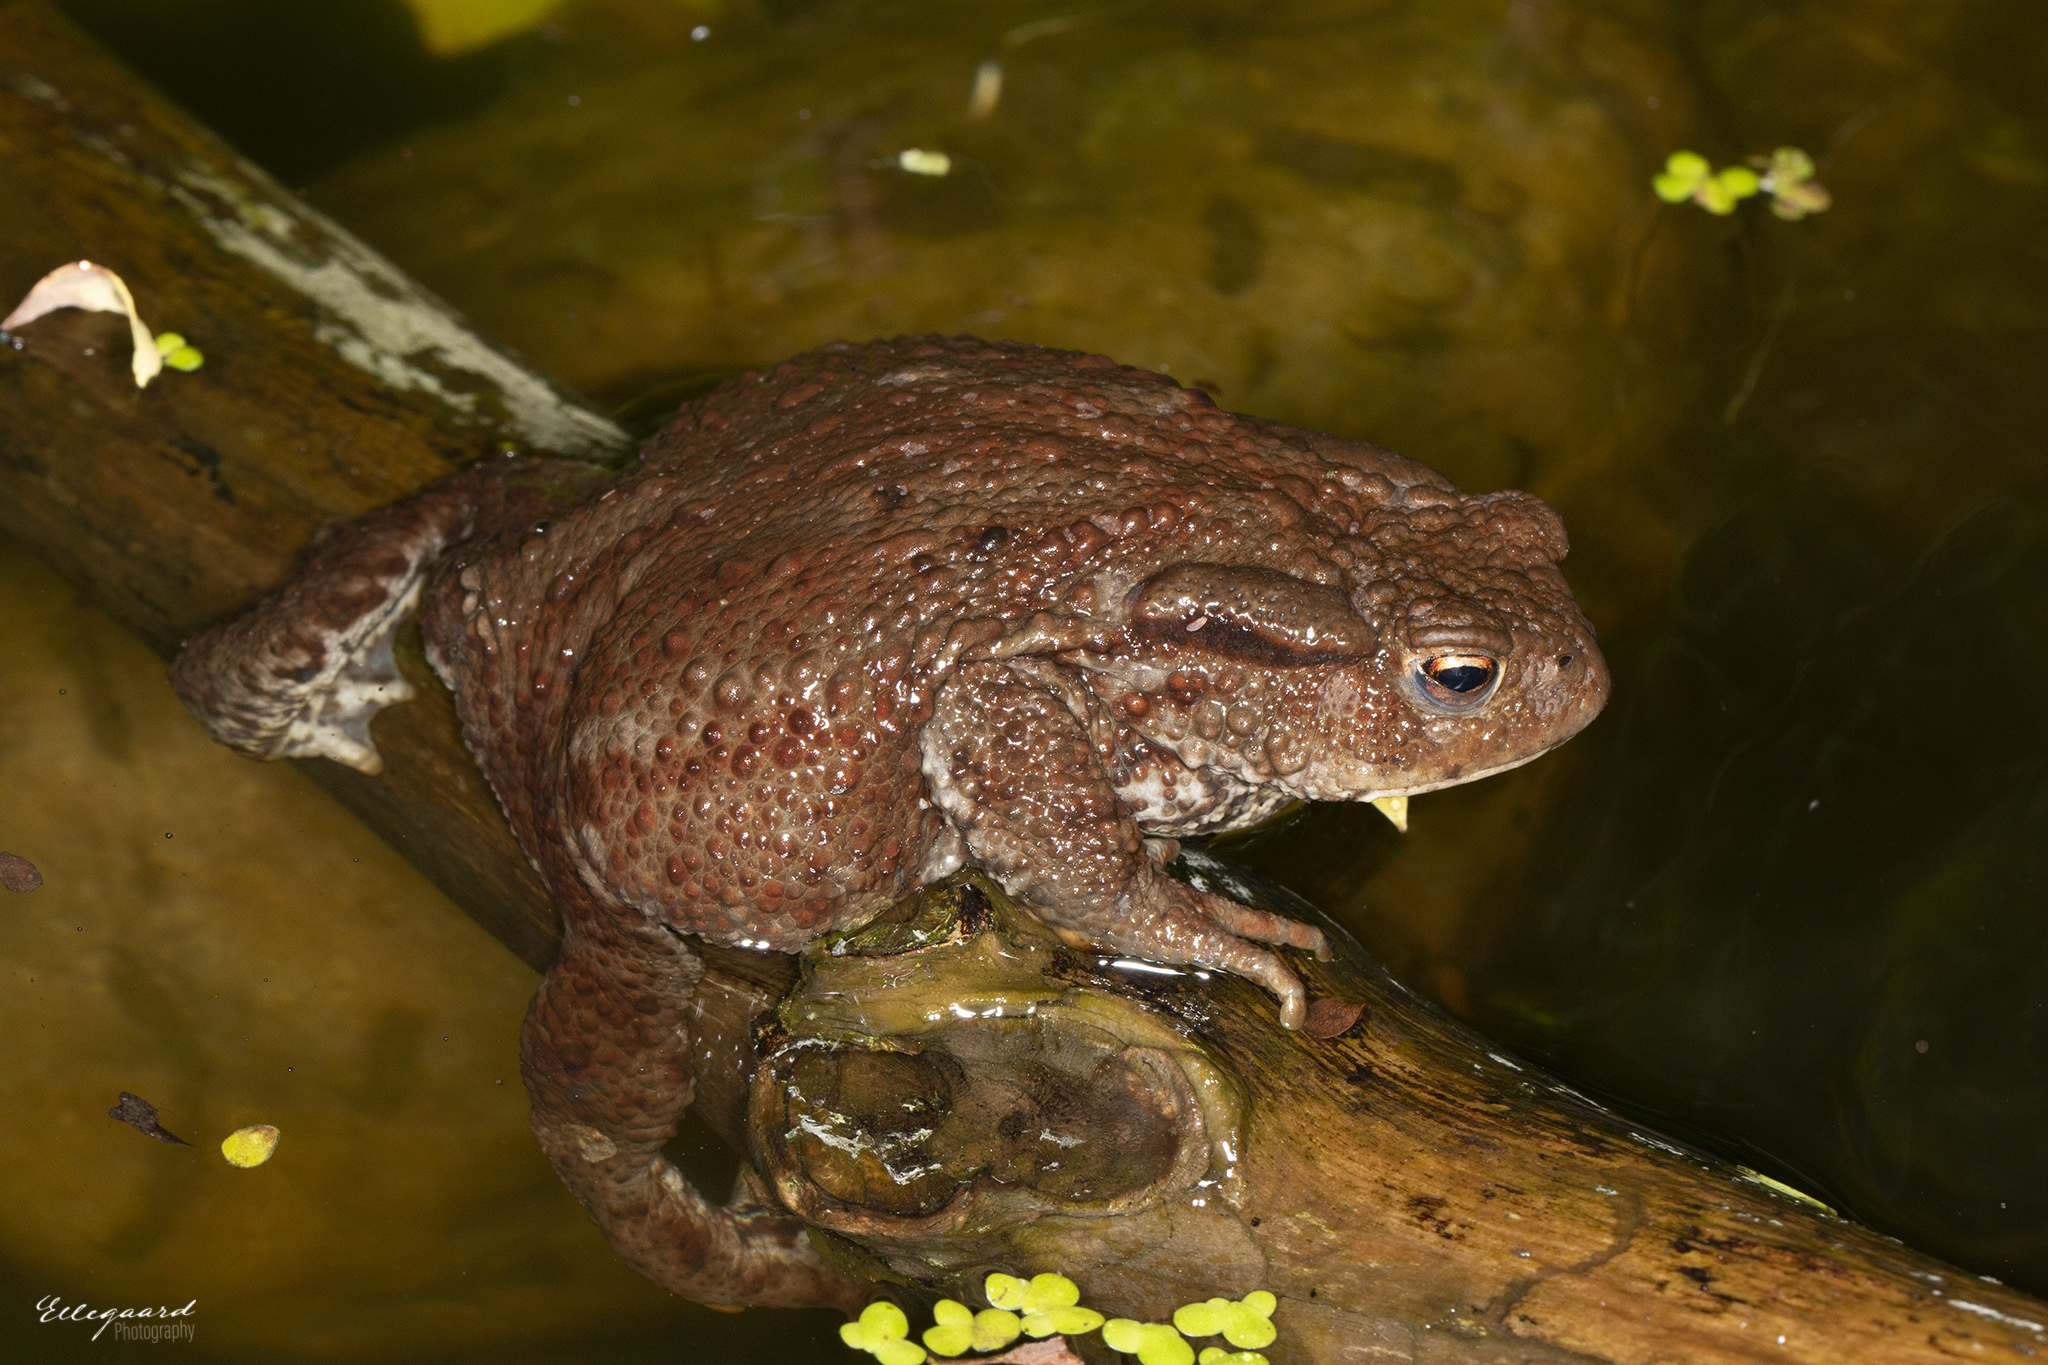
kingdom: Animalia
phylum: Chordata
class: Amphibia
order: Anura
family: Bufonidae
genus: Bufo
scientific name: Bufo bufo
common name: Common toad
